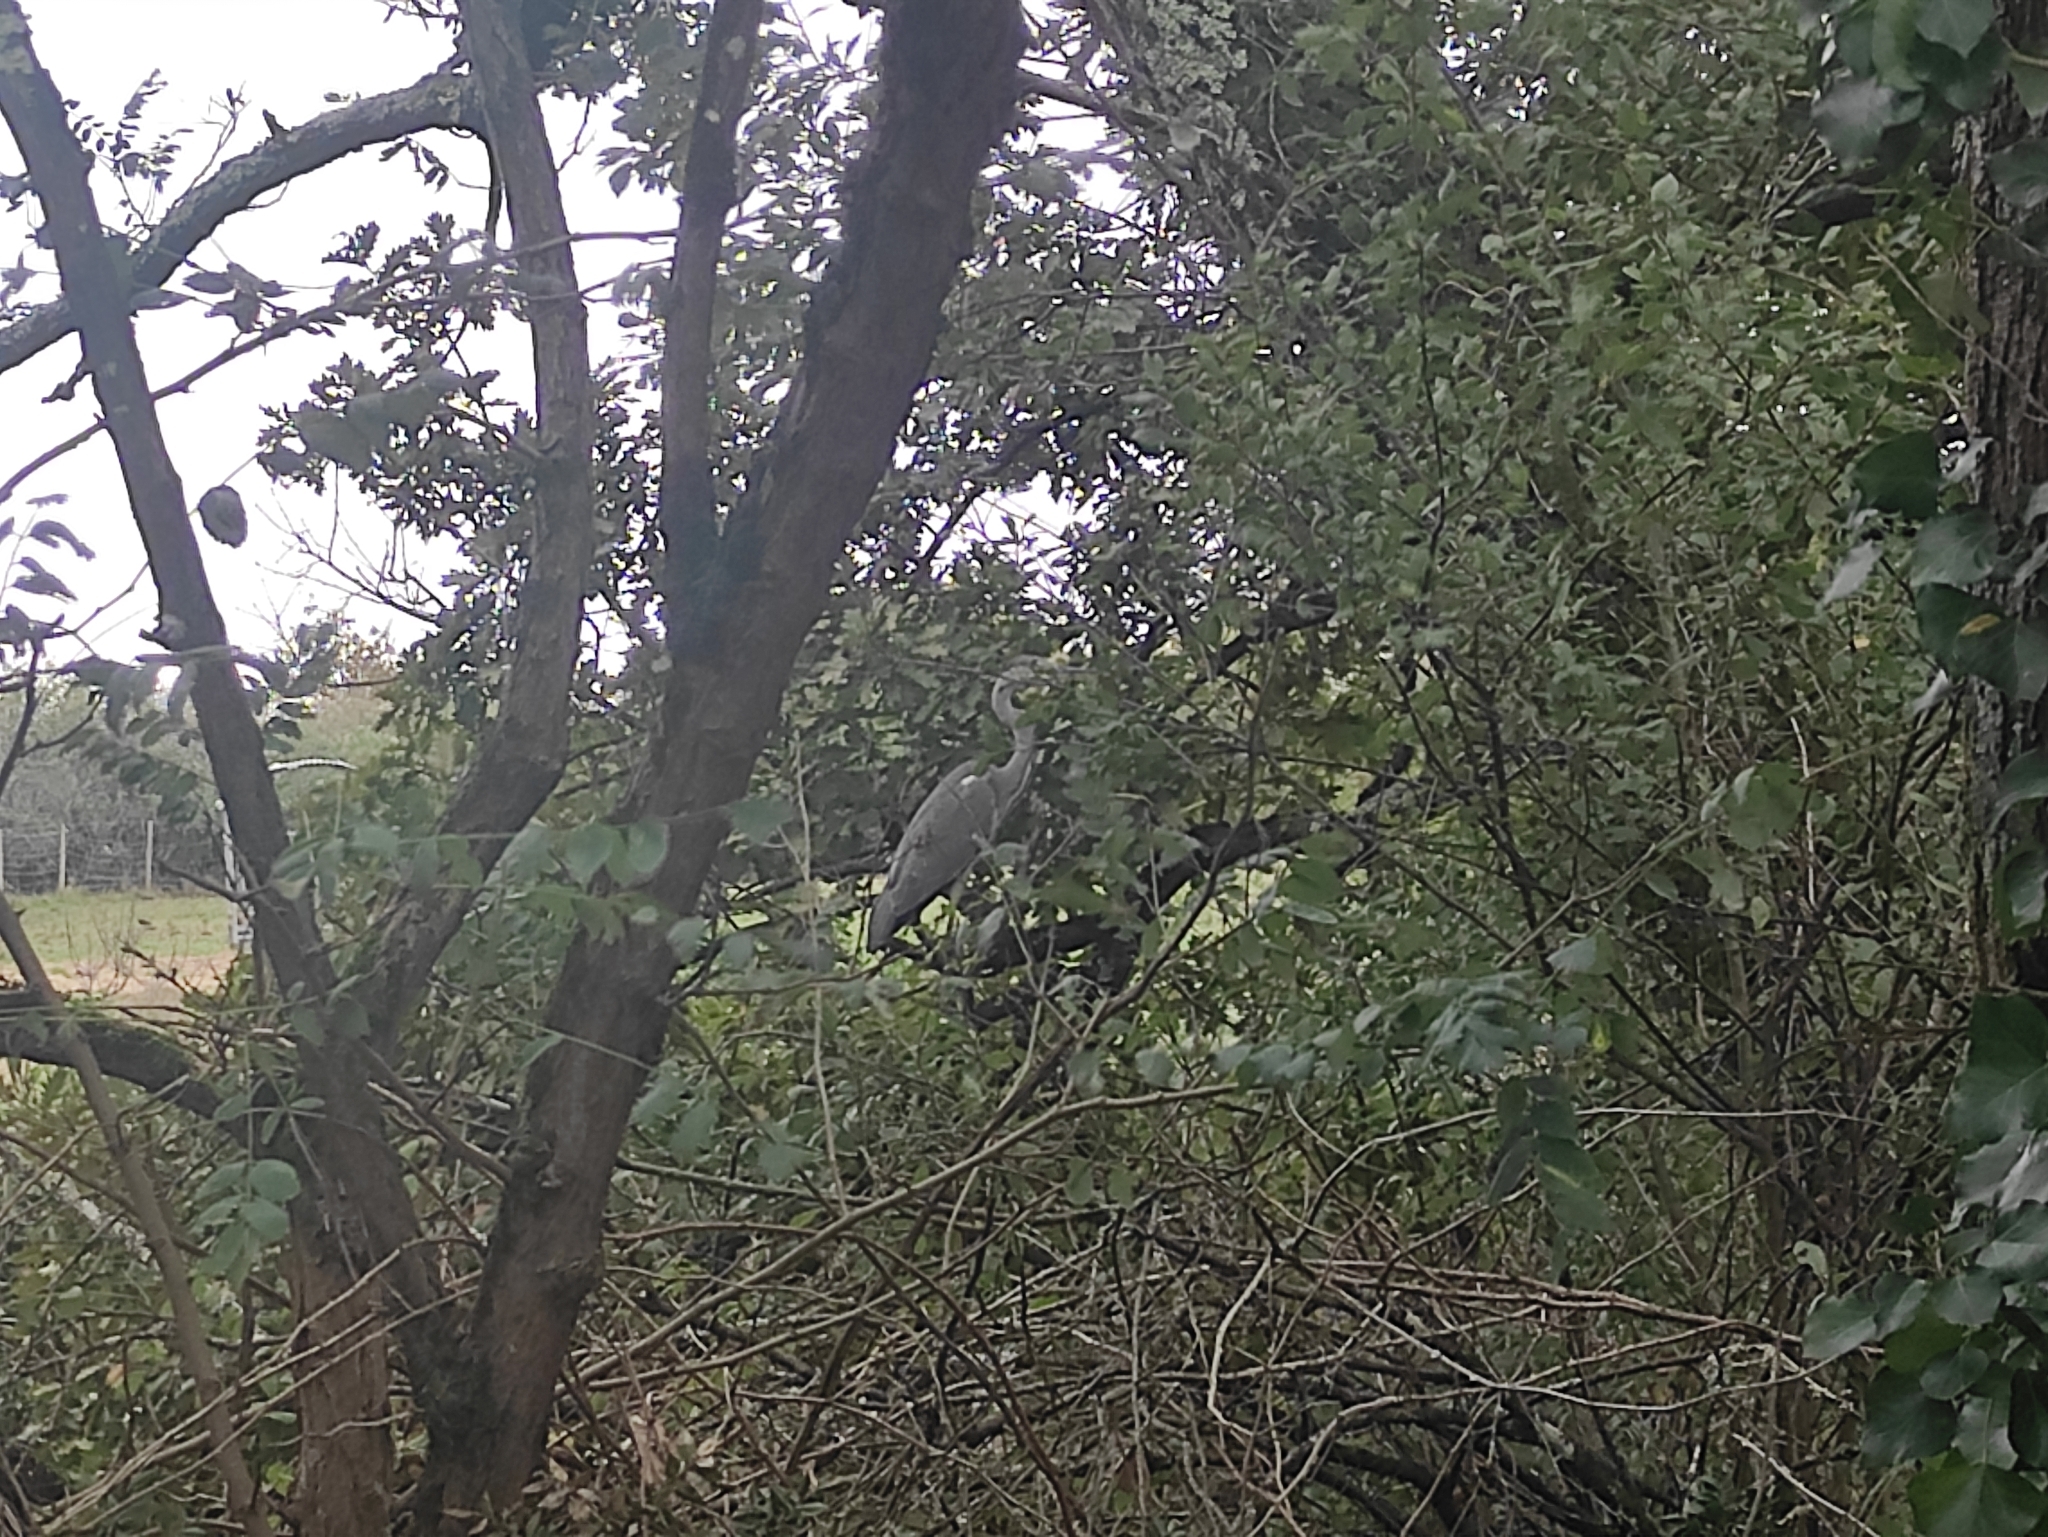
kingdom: Animalia
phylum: Chordata
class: Aves
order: Pelecaniformes
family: Ardeidae
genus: Ardea
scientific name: Ardea cinerea
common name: Grey heron
